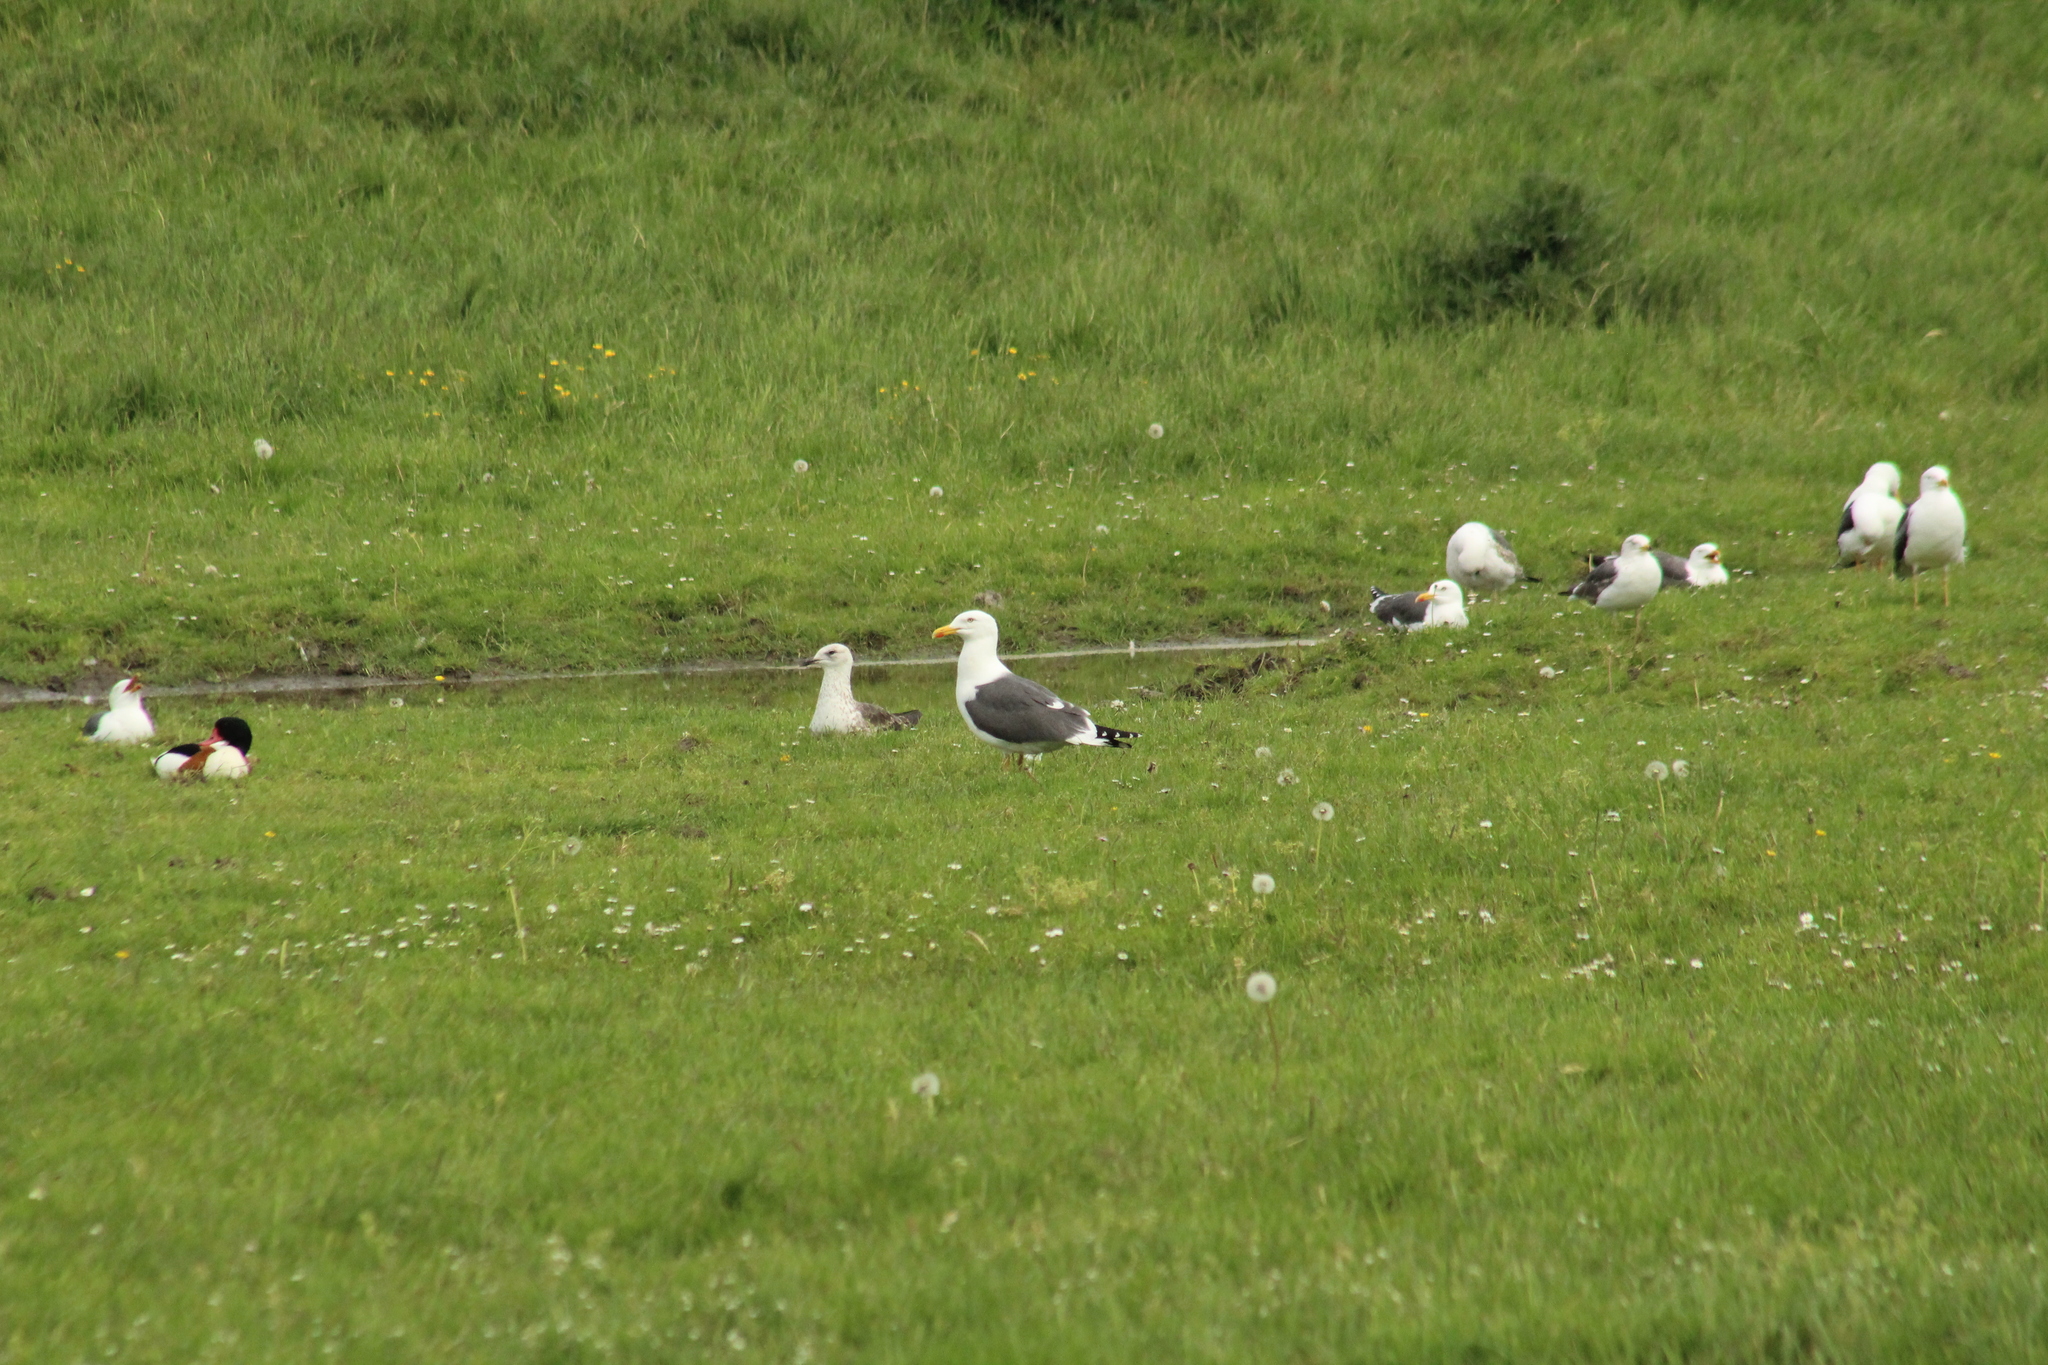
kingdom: Animalia
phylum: Chordata
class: Aves
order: Charadriiformes
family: Laridae
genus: Larus
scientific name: Larus fuscus
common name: Lesser black-backed gull
